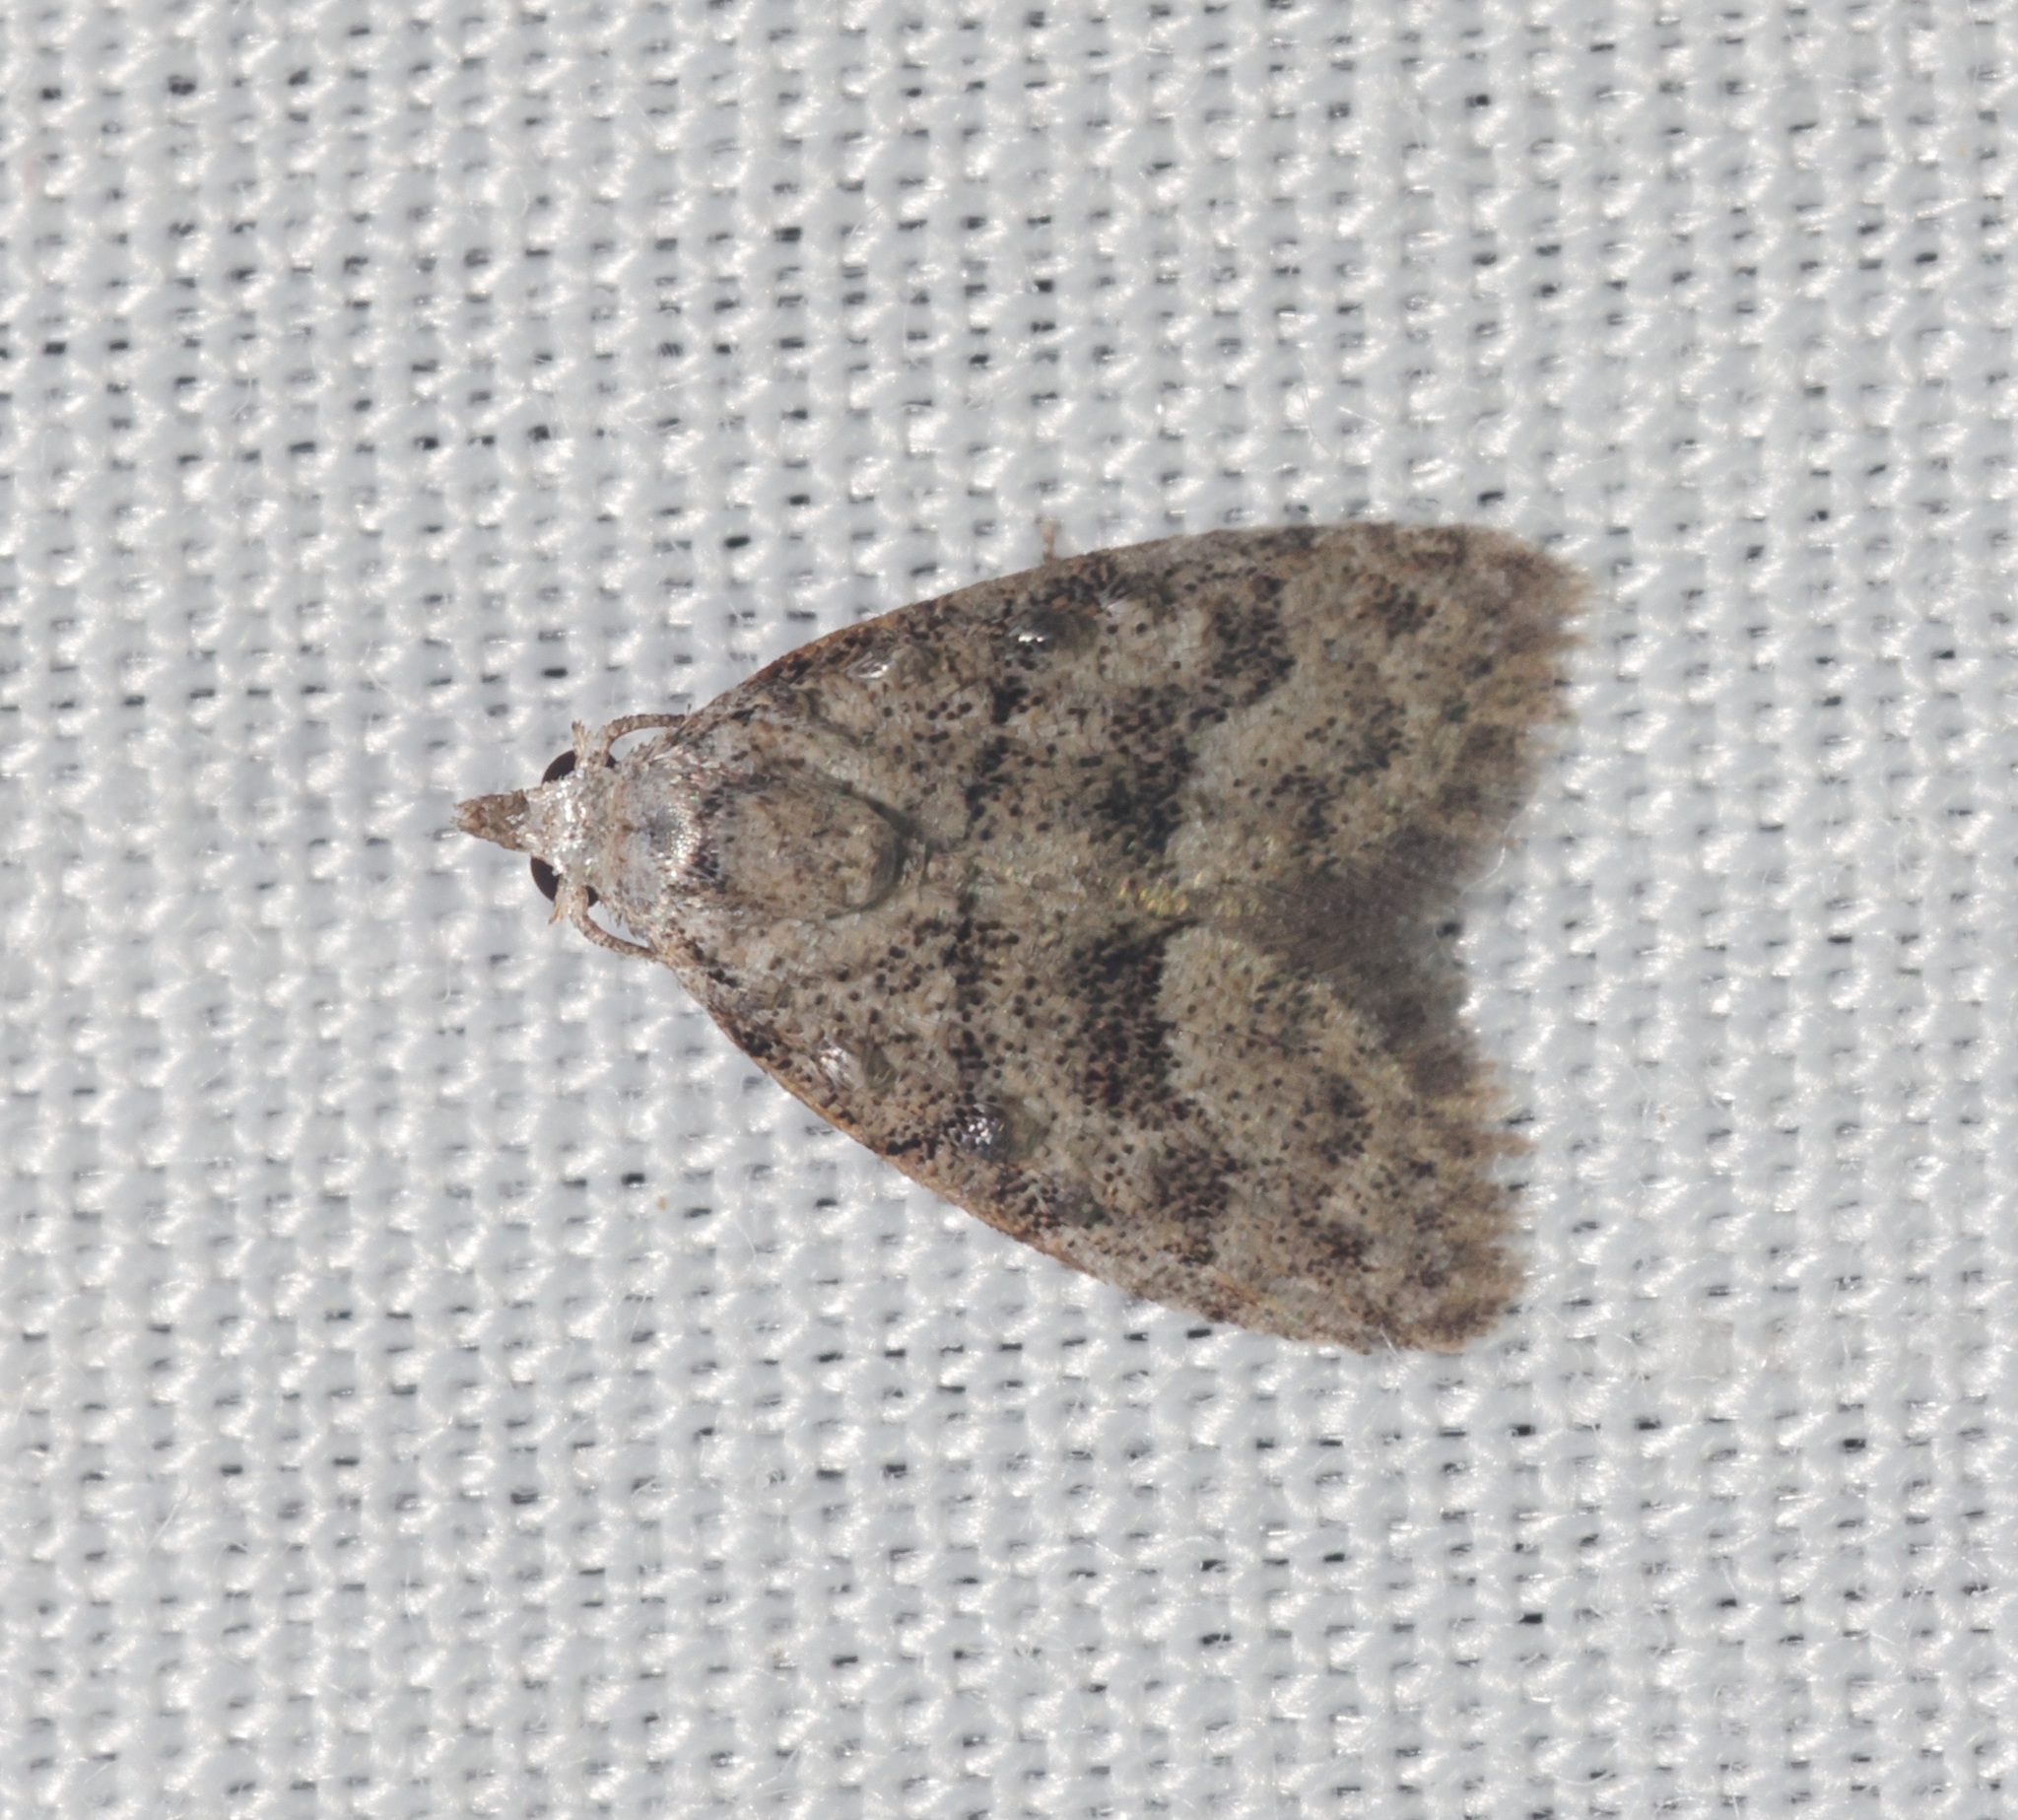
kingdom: Animalia
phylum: Arthropoda
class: Insecta
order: Lepidoptera
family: Nolidae
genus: Inouenola
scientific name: Inouenola pallescens
